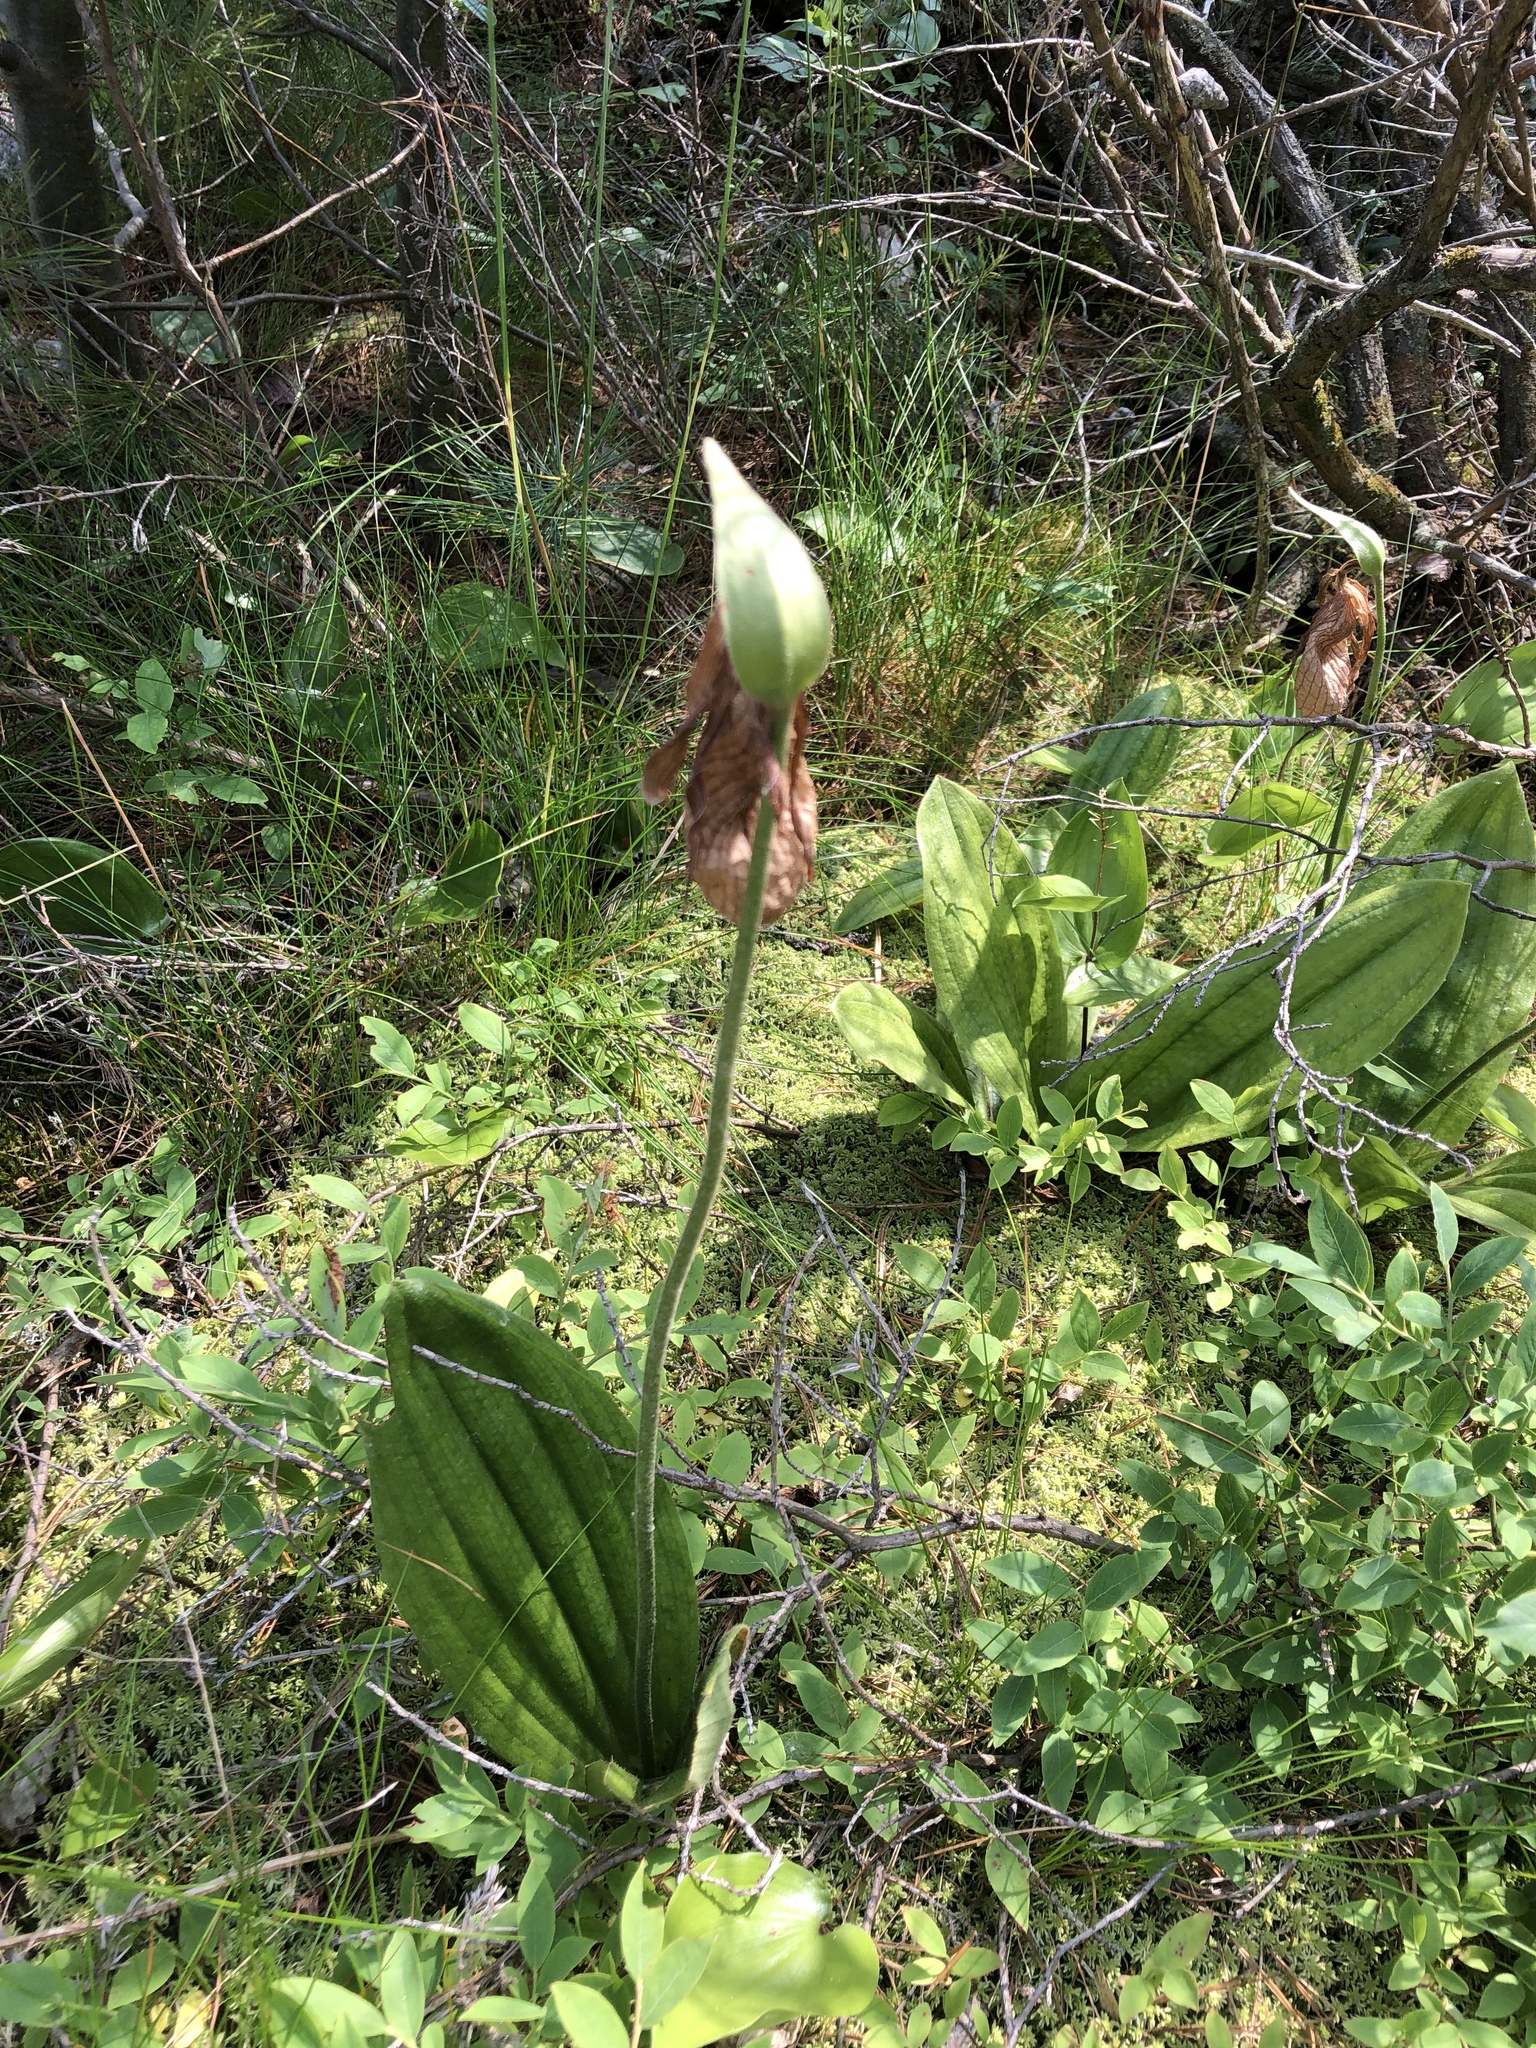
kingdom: Plantae
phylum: Tracheophyta
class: Liliopsida
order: Asparagales
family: Orchidaceae
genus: Cypripedium
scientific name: Cypripedium acaule
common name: Pink lady's-slipper
